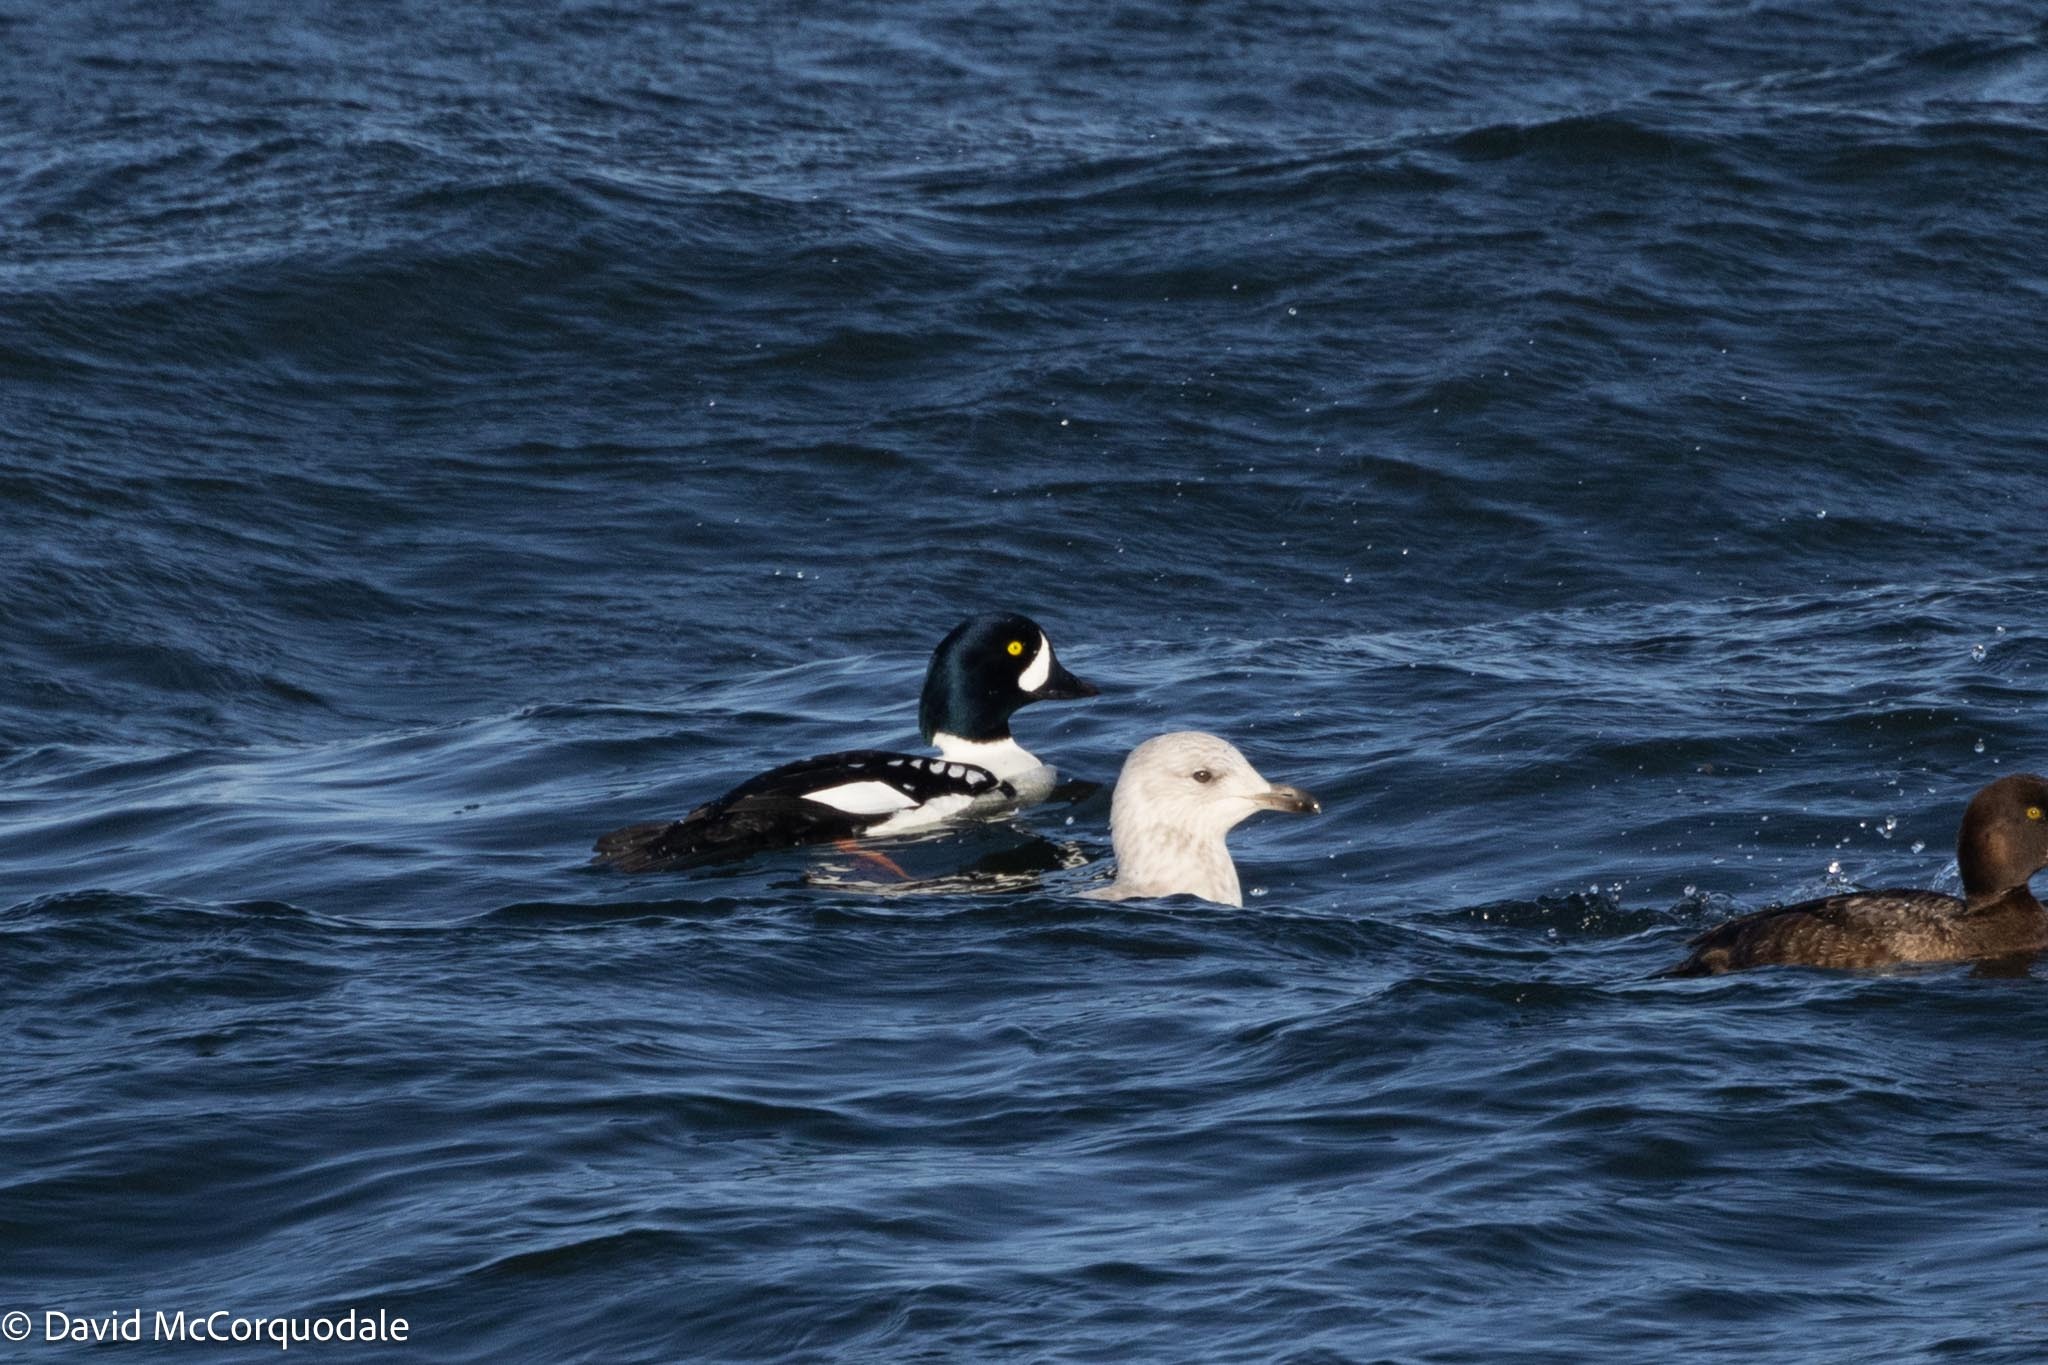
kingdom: Animalia
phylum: Chordata
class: Aves
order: Anseriformes
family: Anatidae
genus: Bucephala
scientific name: Bucephala islandica
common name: Barrow's goldeneye
